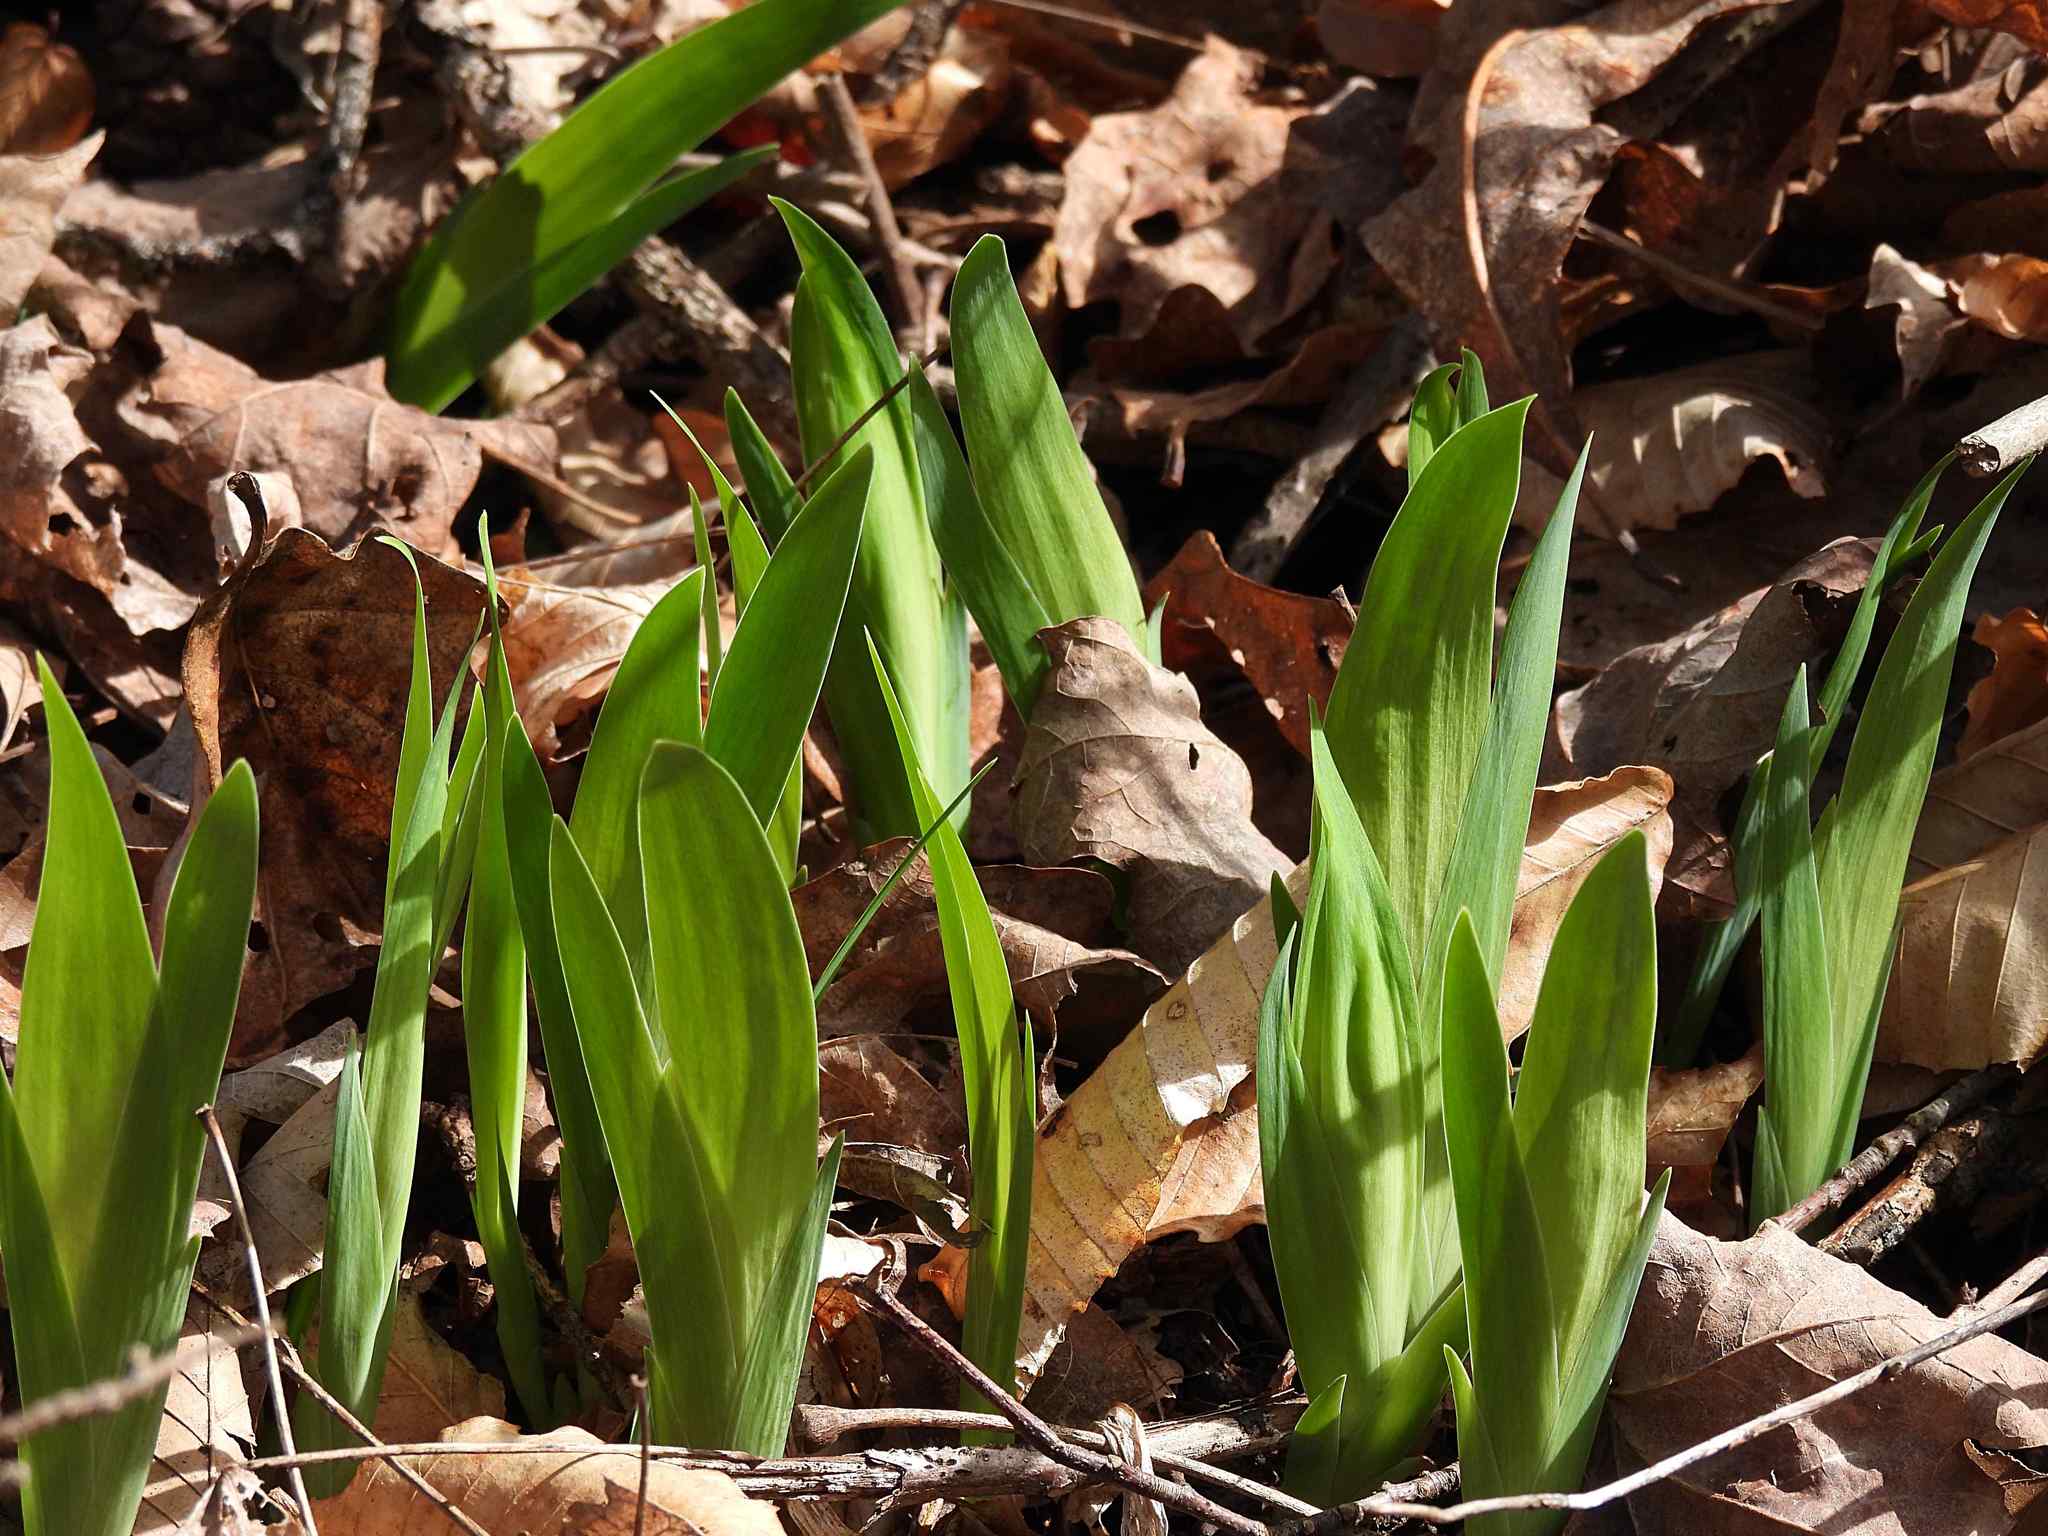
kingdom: Plantae
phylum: Tracheophyta
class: Liliopsida
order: Asparagales
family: Iridaceae
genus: Iris
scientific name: Iris cristata
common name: Crested iris
